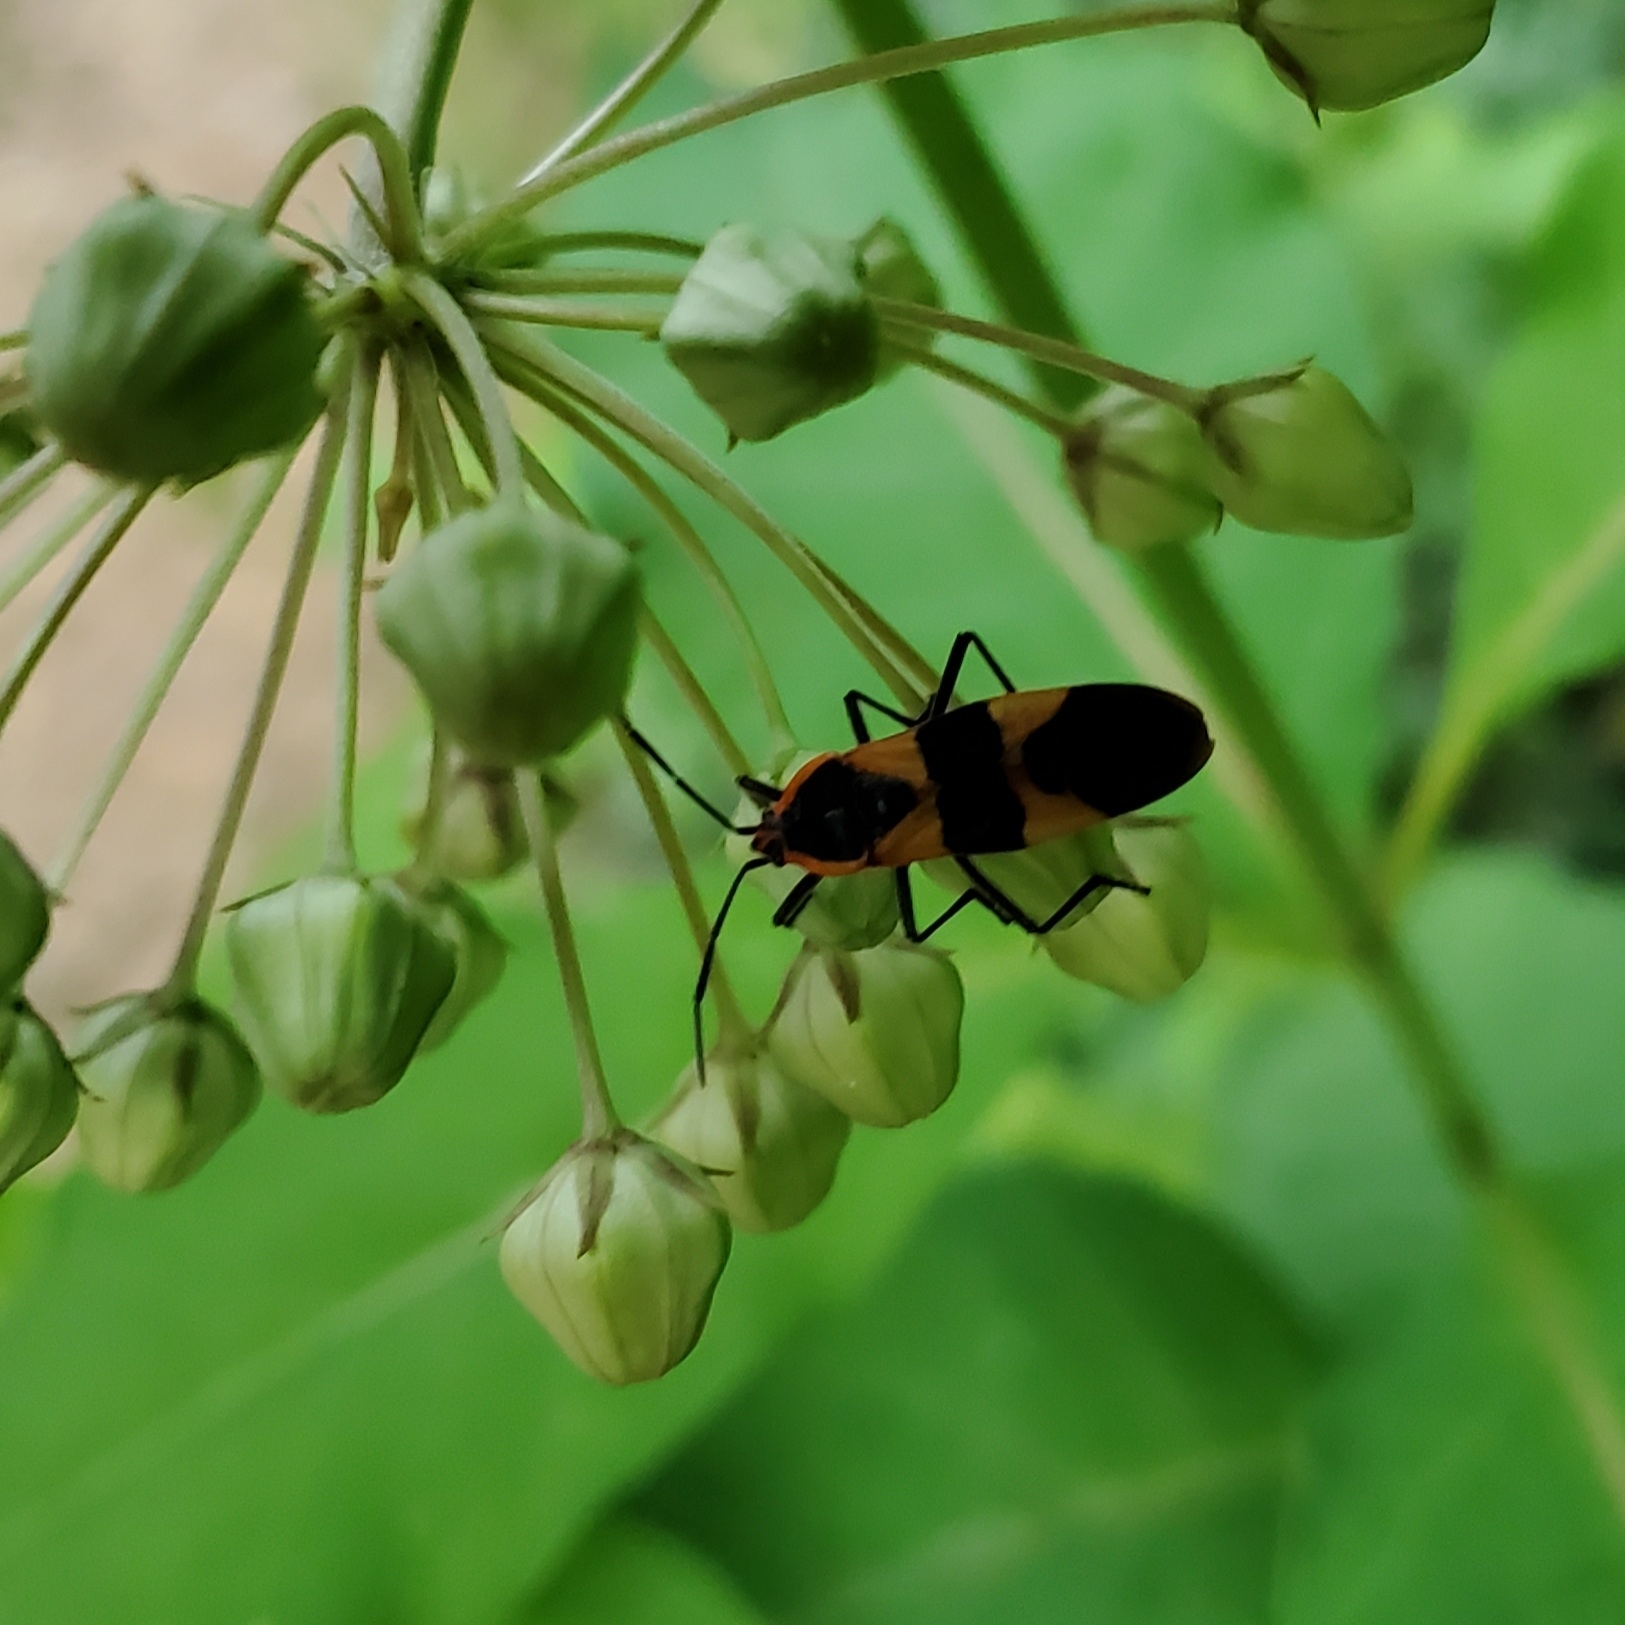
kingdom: Animalia
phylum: Arthropoda
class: Insecta
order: Hemiptera
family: Lygaeidae
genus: Oncopeltus
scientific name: Oncopeltus fasciatus
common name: Large milkweed bug
